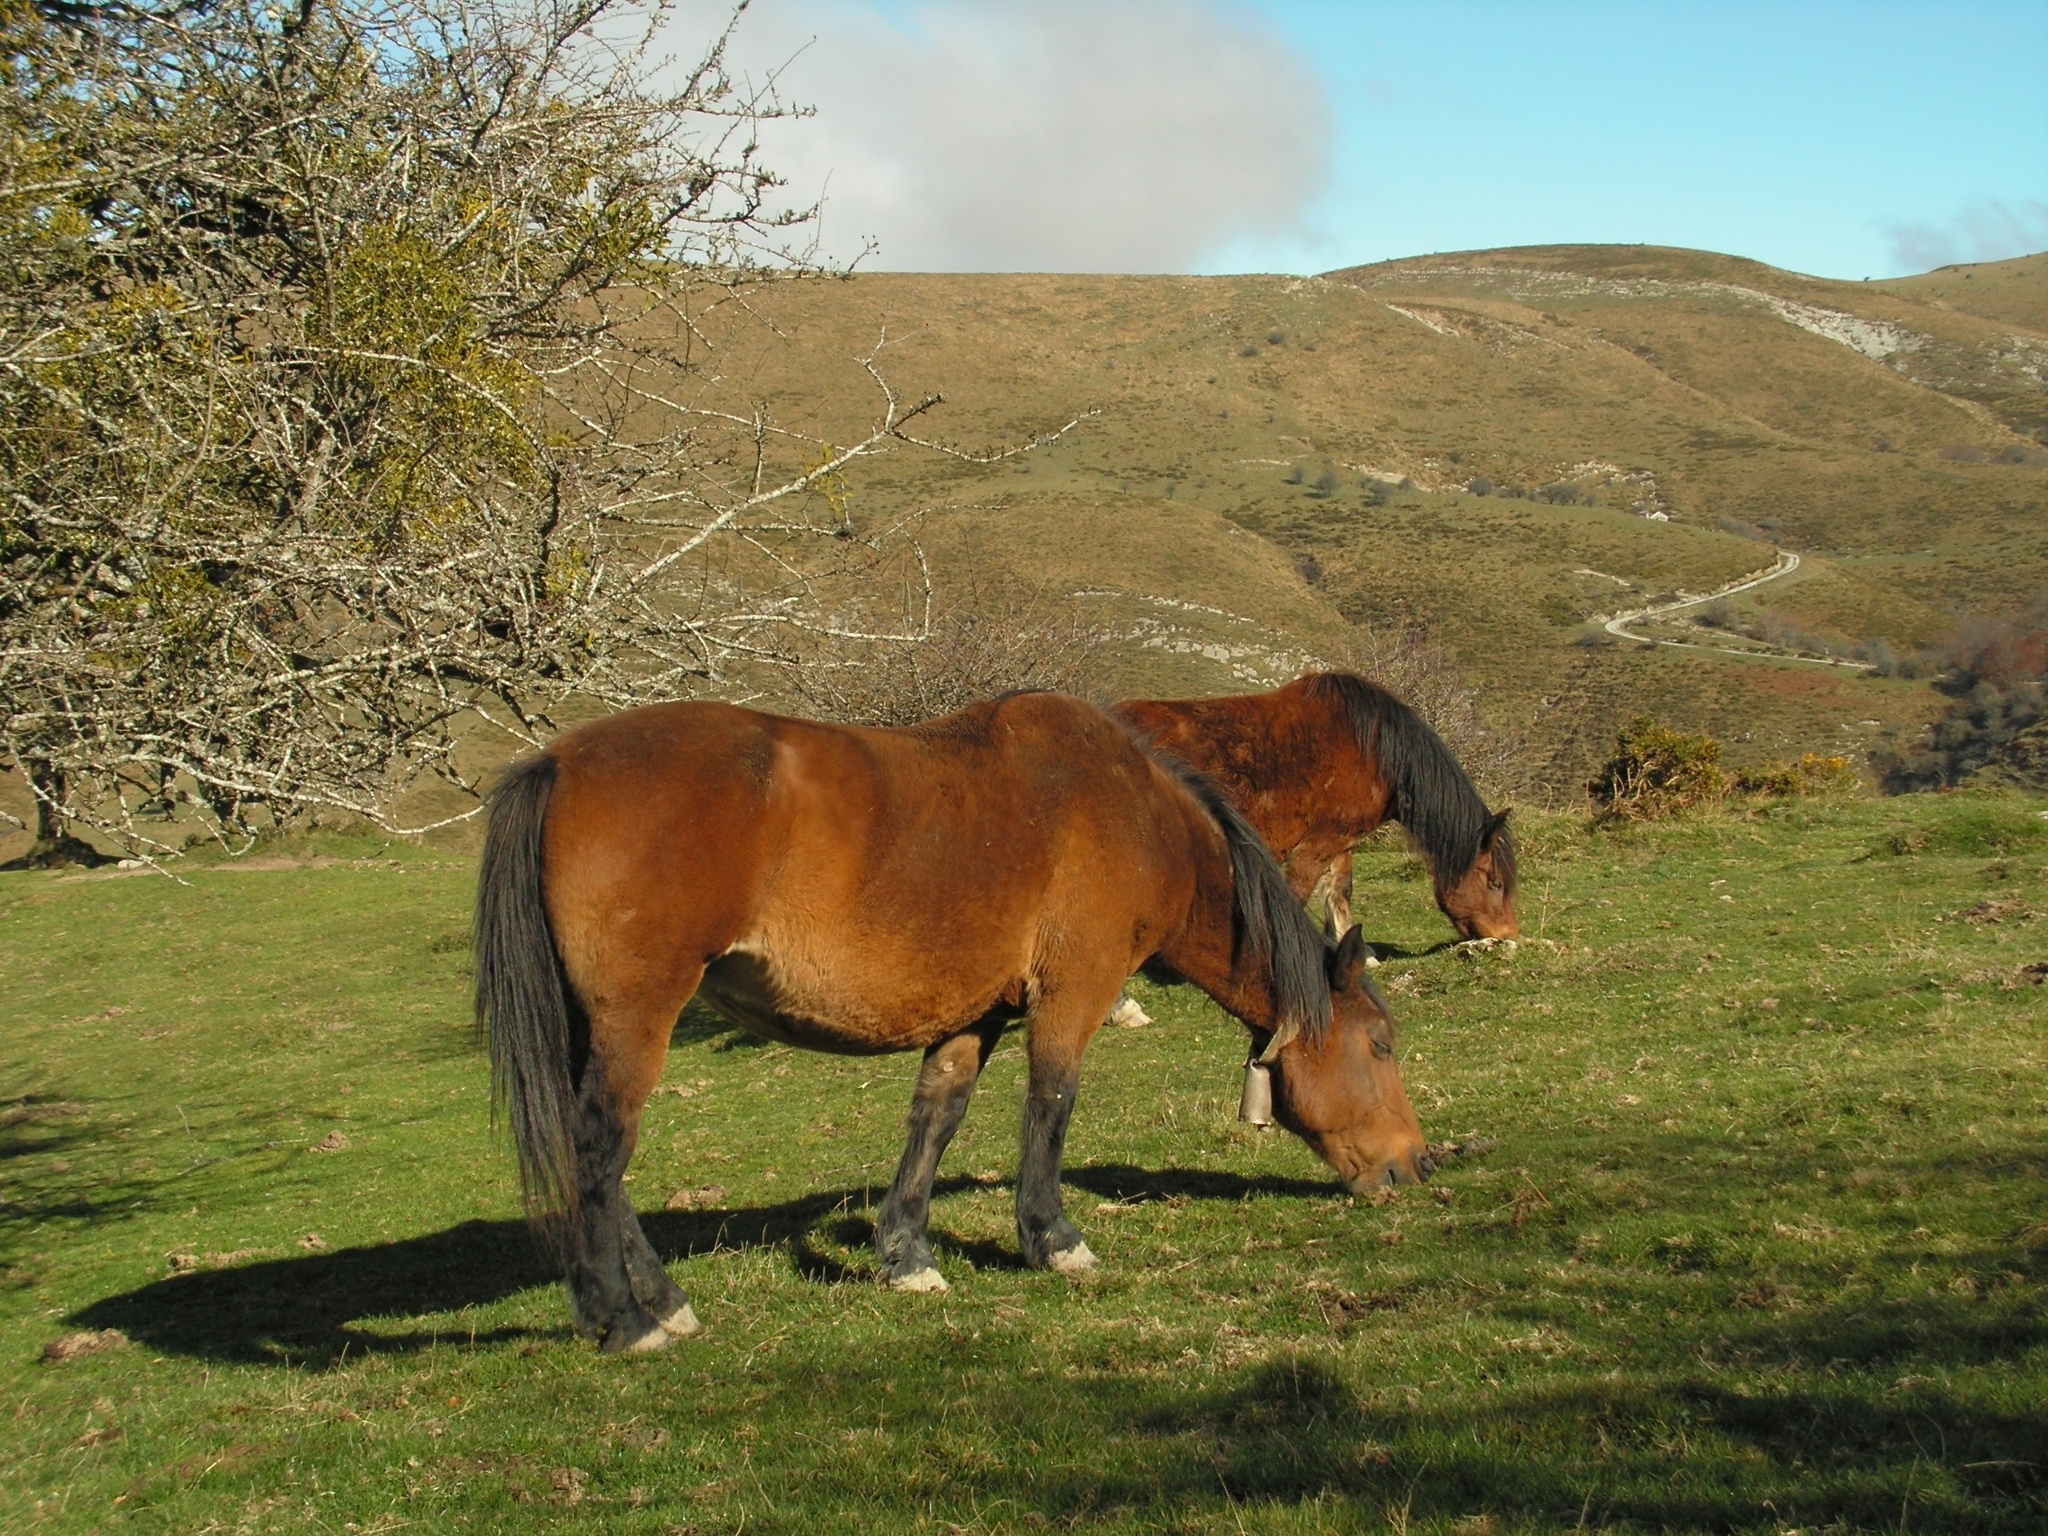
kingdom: Animalia
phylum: Chordata
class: Mammalia
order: Perissodactyla
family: Equidae
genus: Equus
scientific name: Equus caballus
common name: Horse
